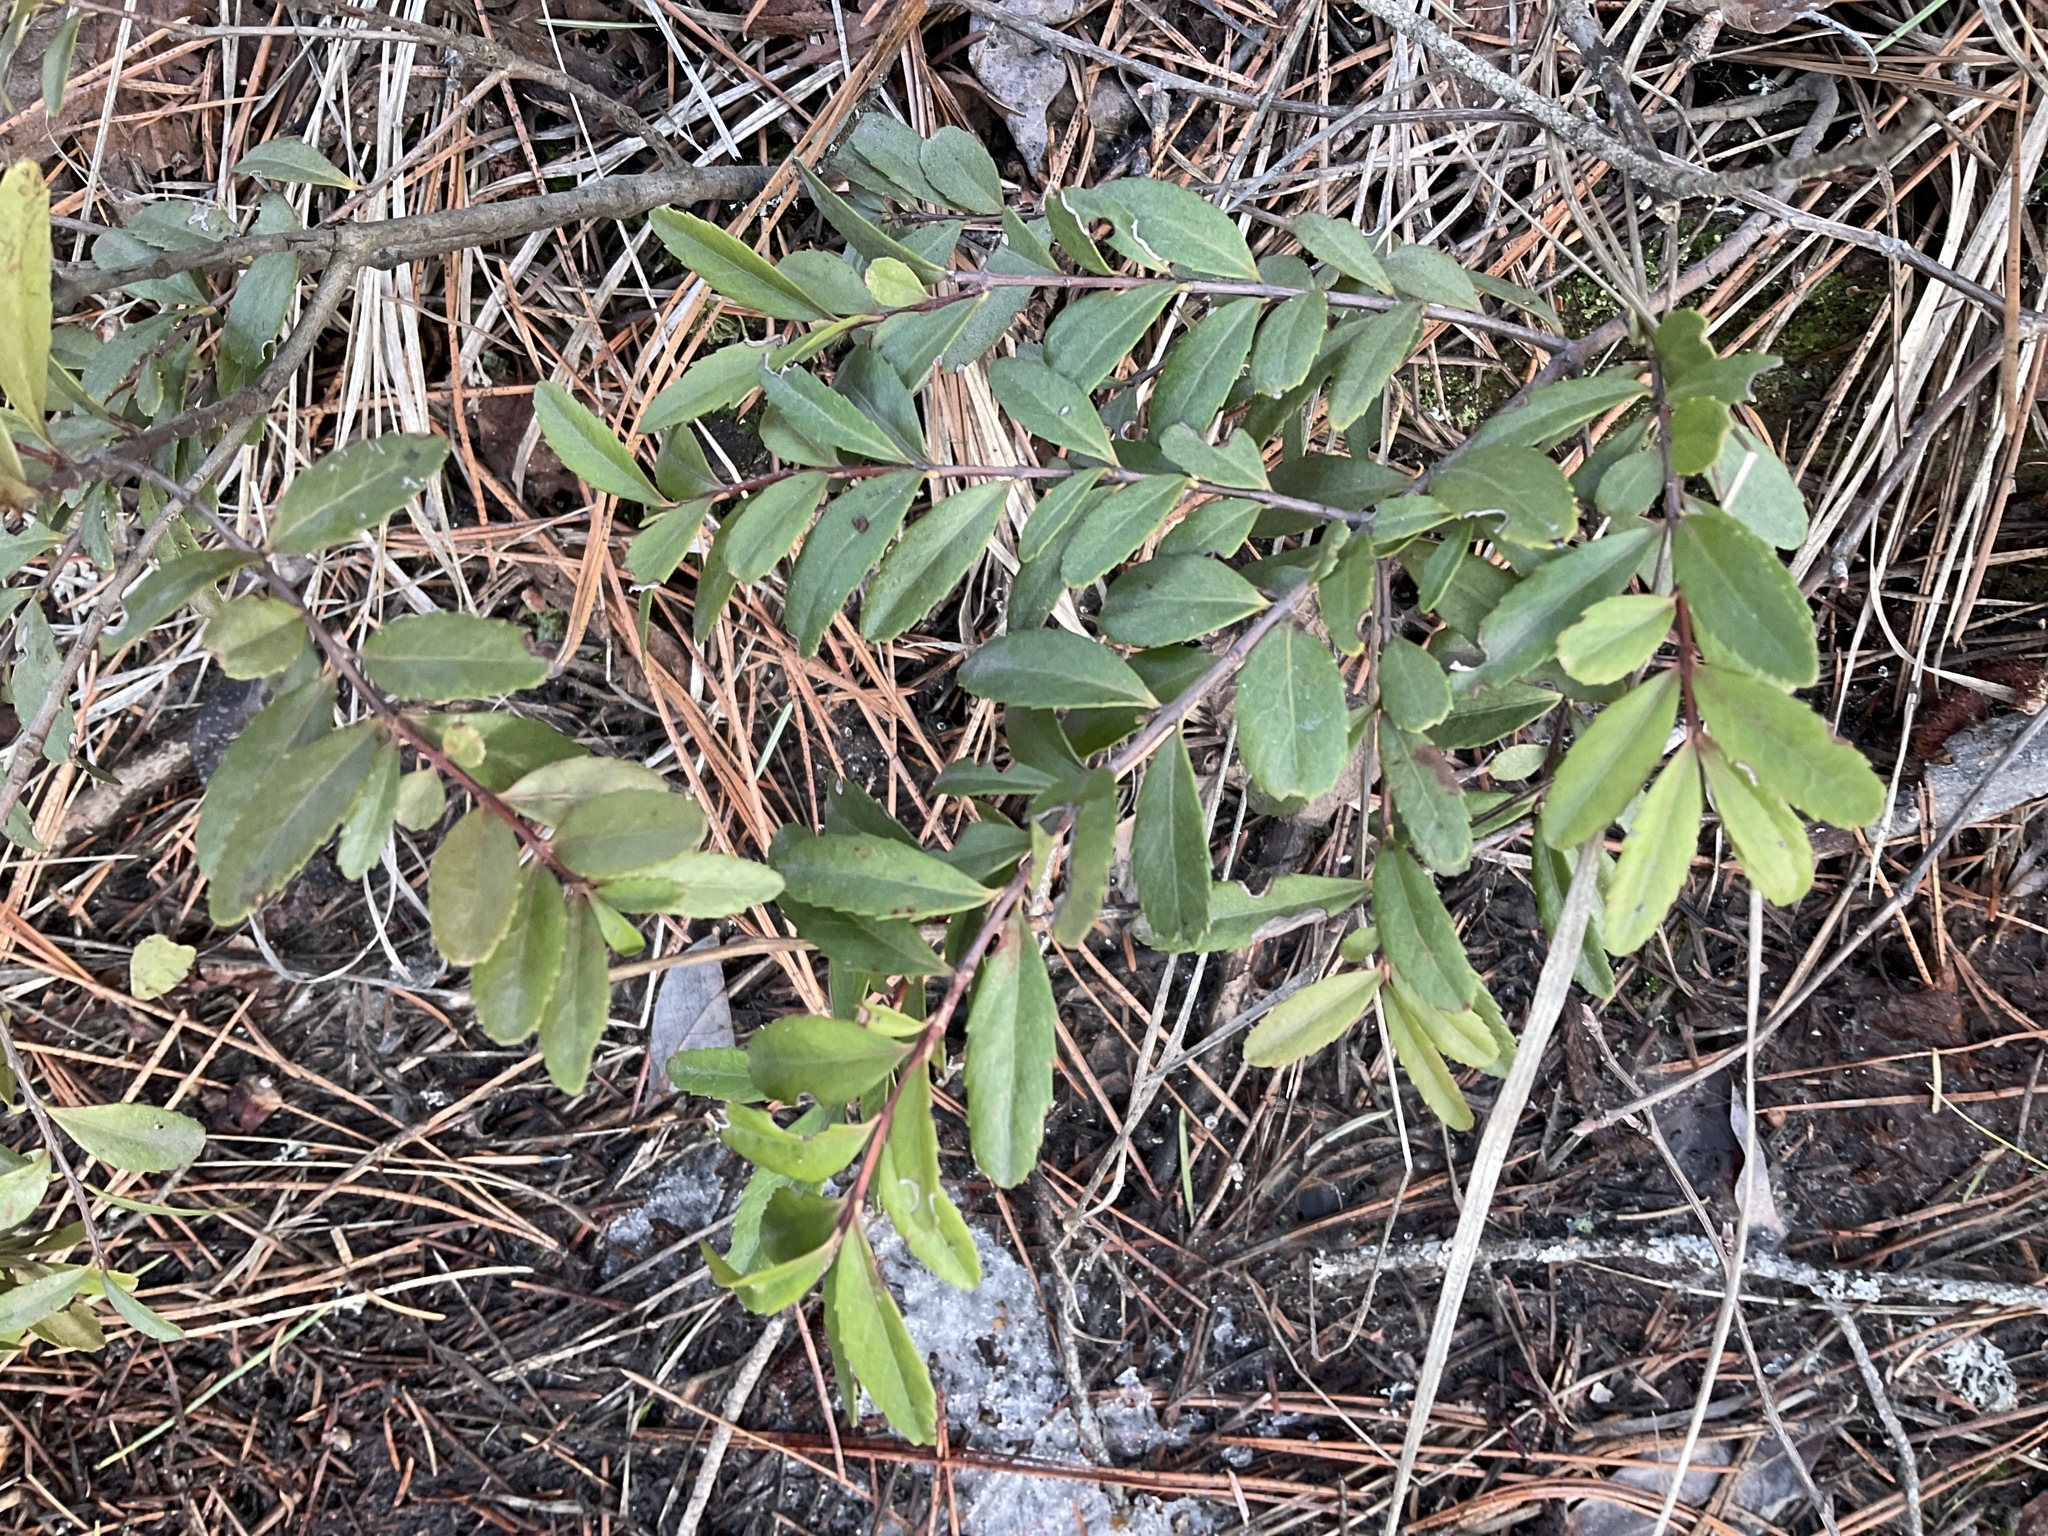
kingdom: Plantae
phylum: Tracheophyta
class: Magnoliopsida
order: Celastrales
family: Celastraceae
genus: Paxistima
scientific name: Paxistima myrsinites
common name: Mountain-lover
